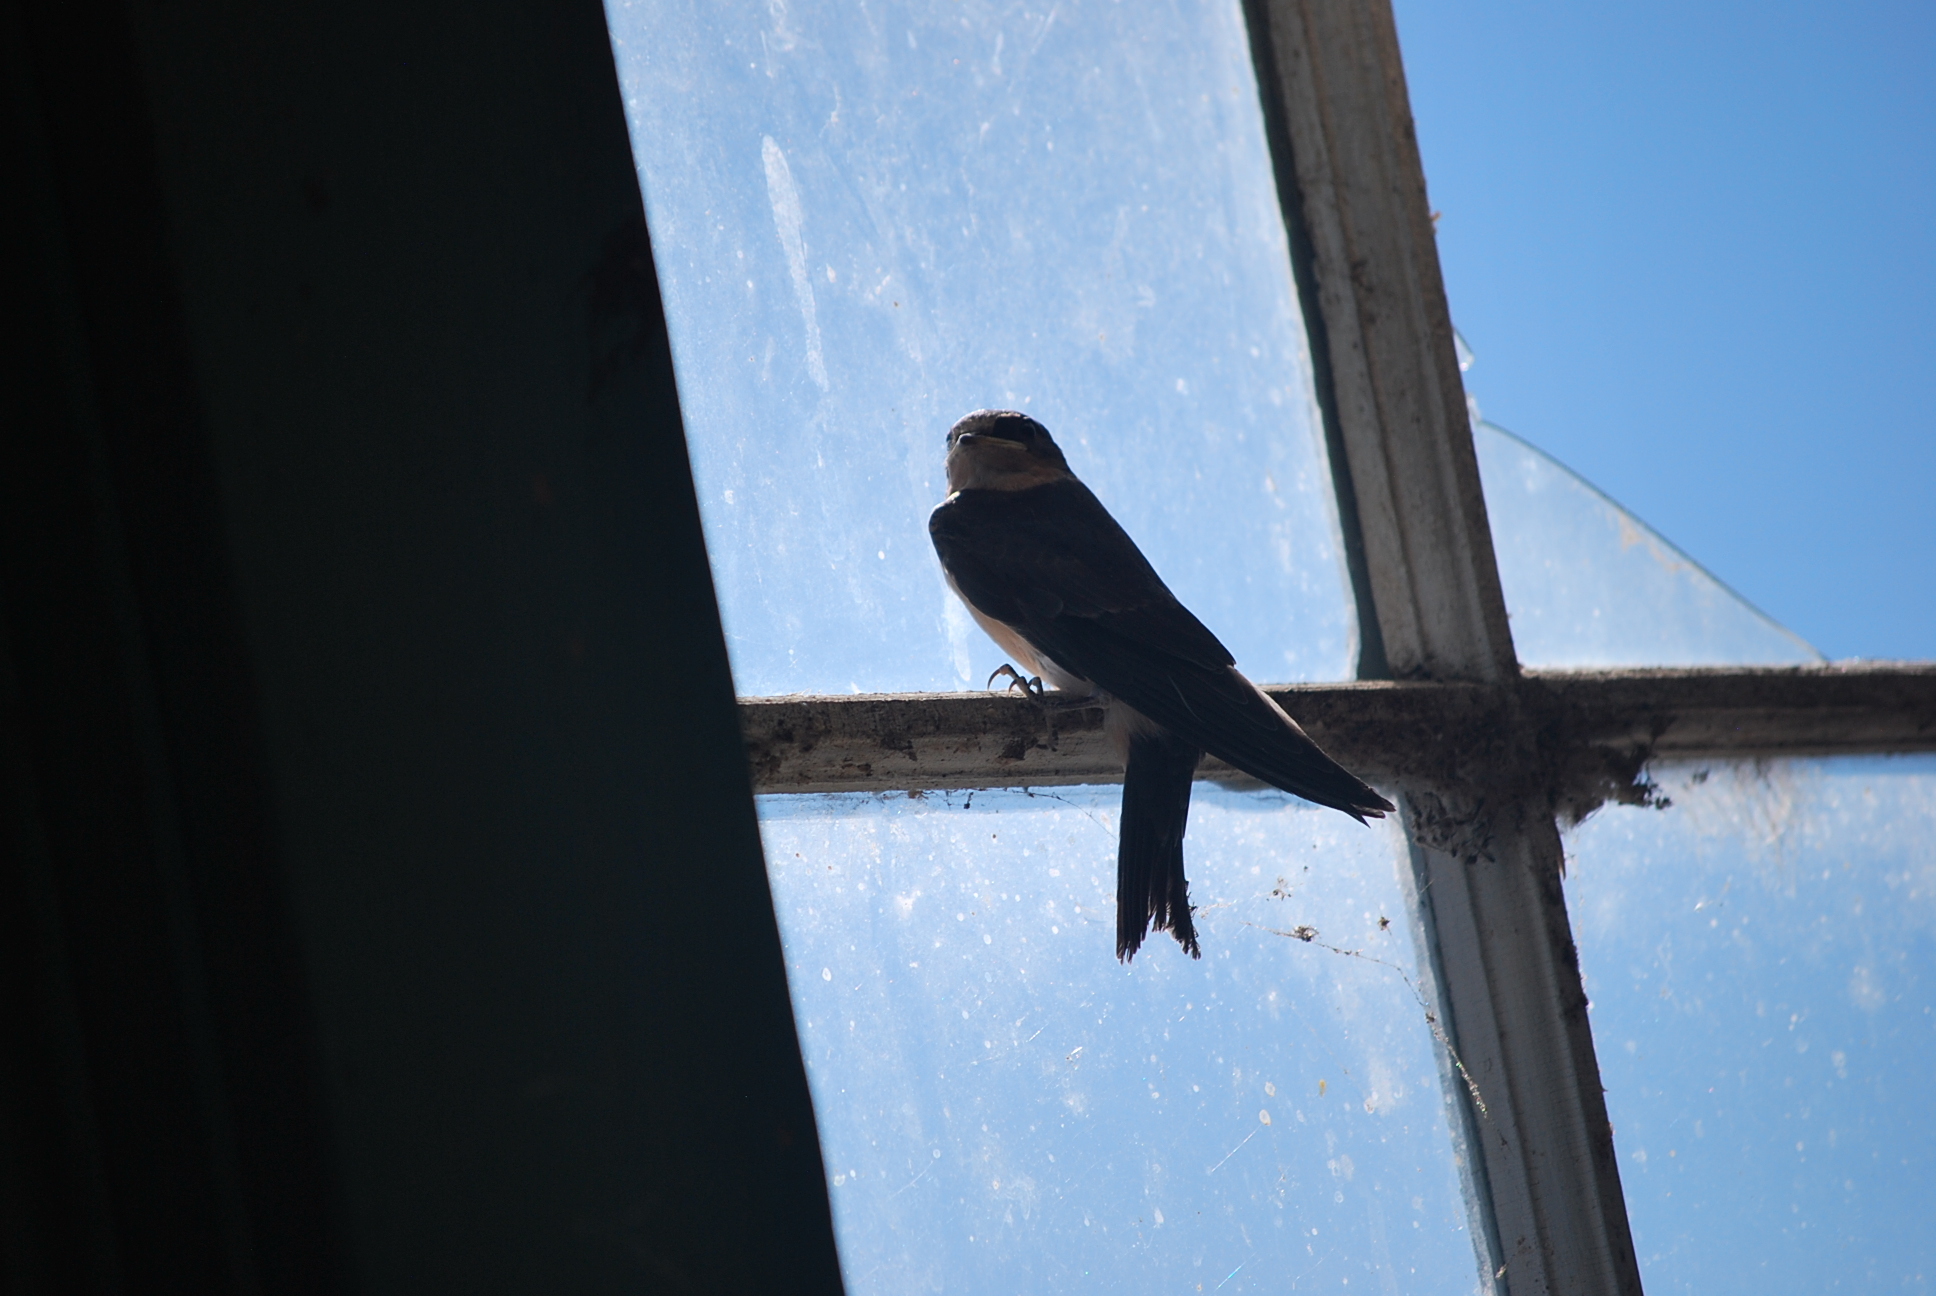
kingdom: Animalia
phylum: Chordata
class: Aves
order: Passeriformes
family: Hirundinidae
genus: Hirundo
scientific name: Hirundo rustica
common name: Barn swallow
